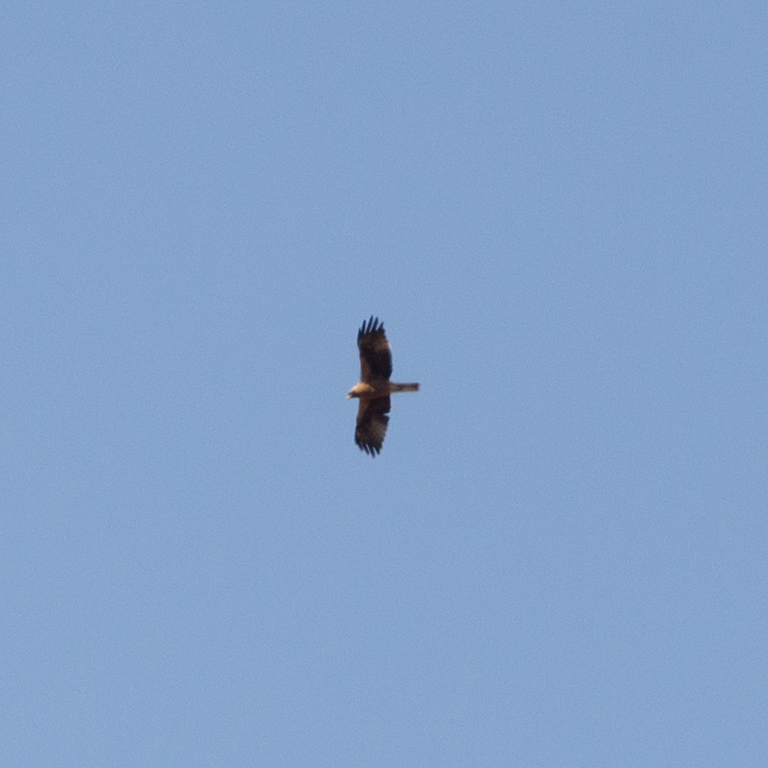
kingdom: Animalia
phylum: Chordata
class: Aves
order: Accipitriformes
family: Accipitridae
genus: Hieraaetus
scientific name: Hieraaetus pennatus
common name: Booted eagle
